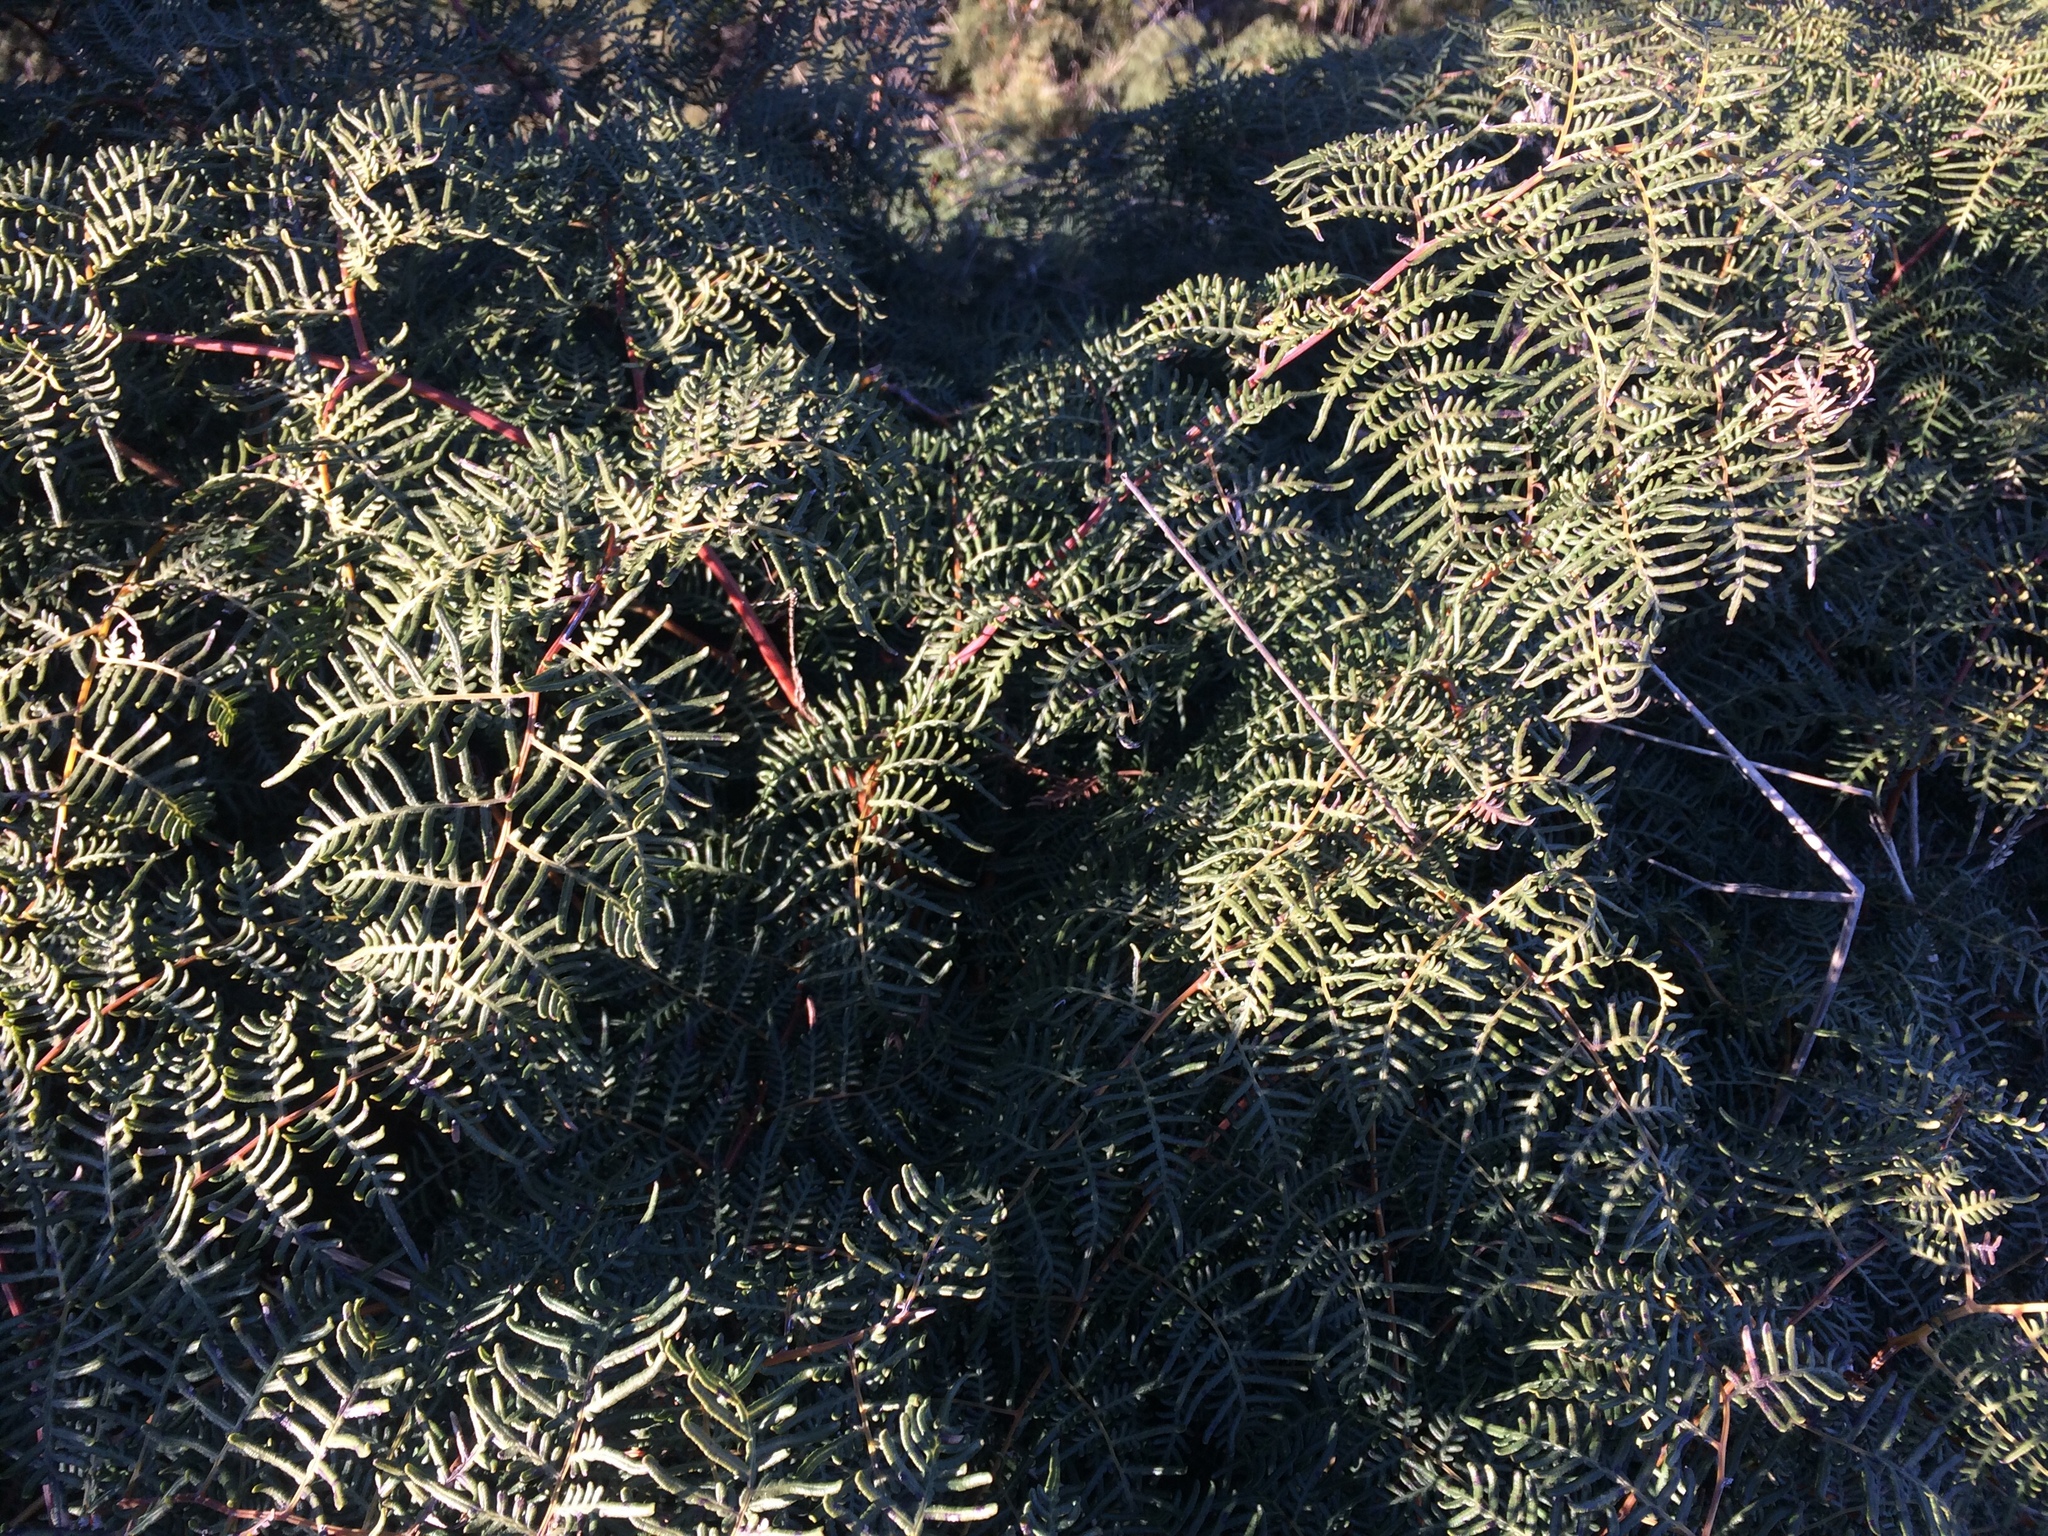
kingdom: Plantae
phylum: Tracheophyta
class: Polypodiopsida
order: Polypodiales
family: Dennstaedtiaceae
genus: Pteridium
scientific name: Pteridium esculentum
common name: Bracken fern
